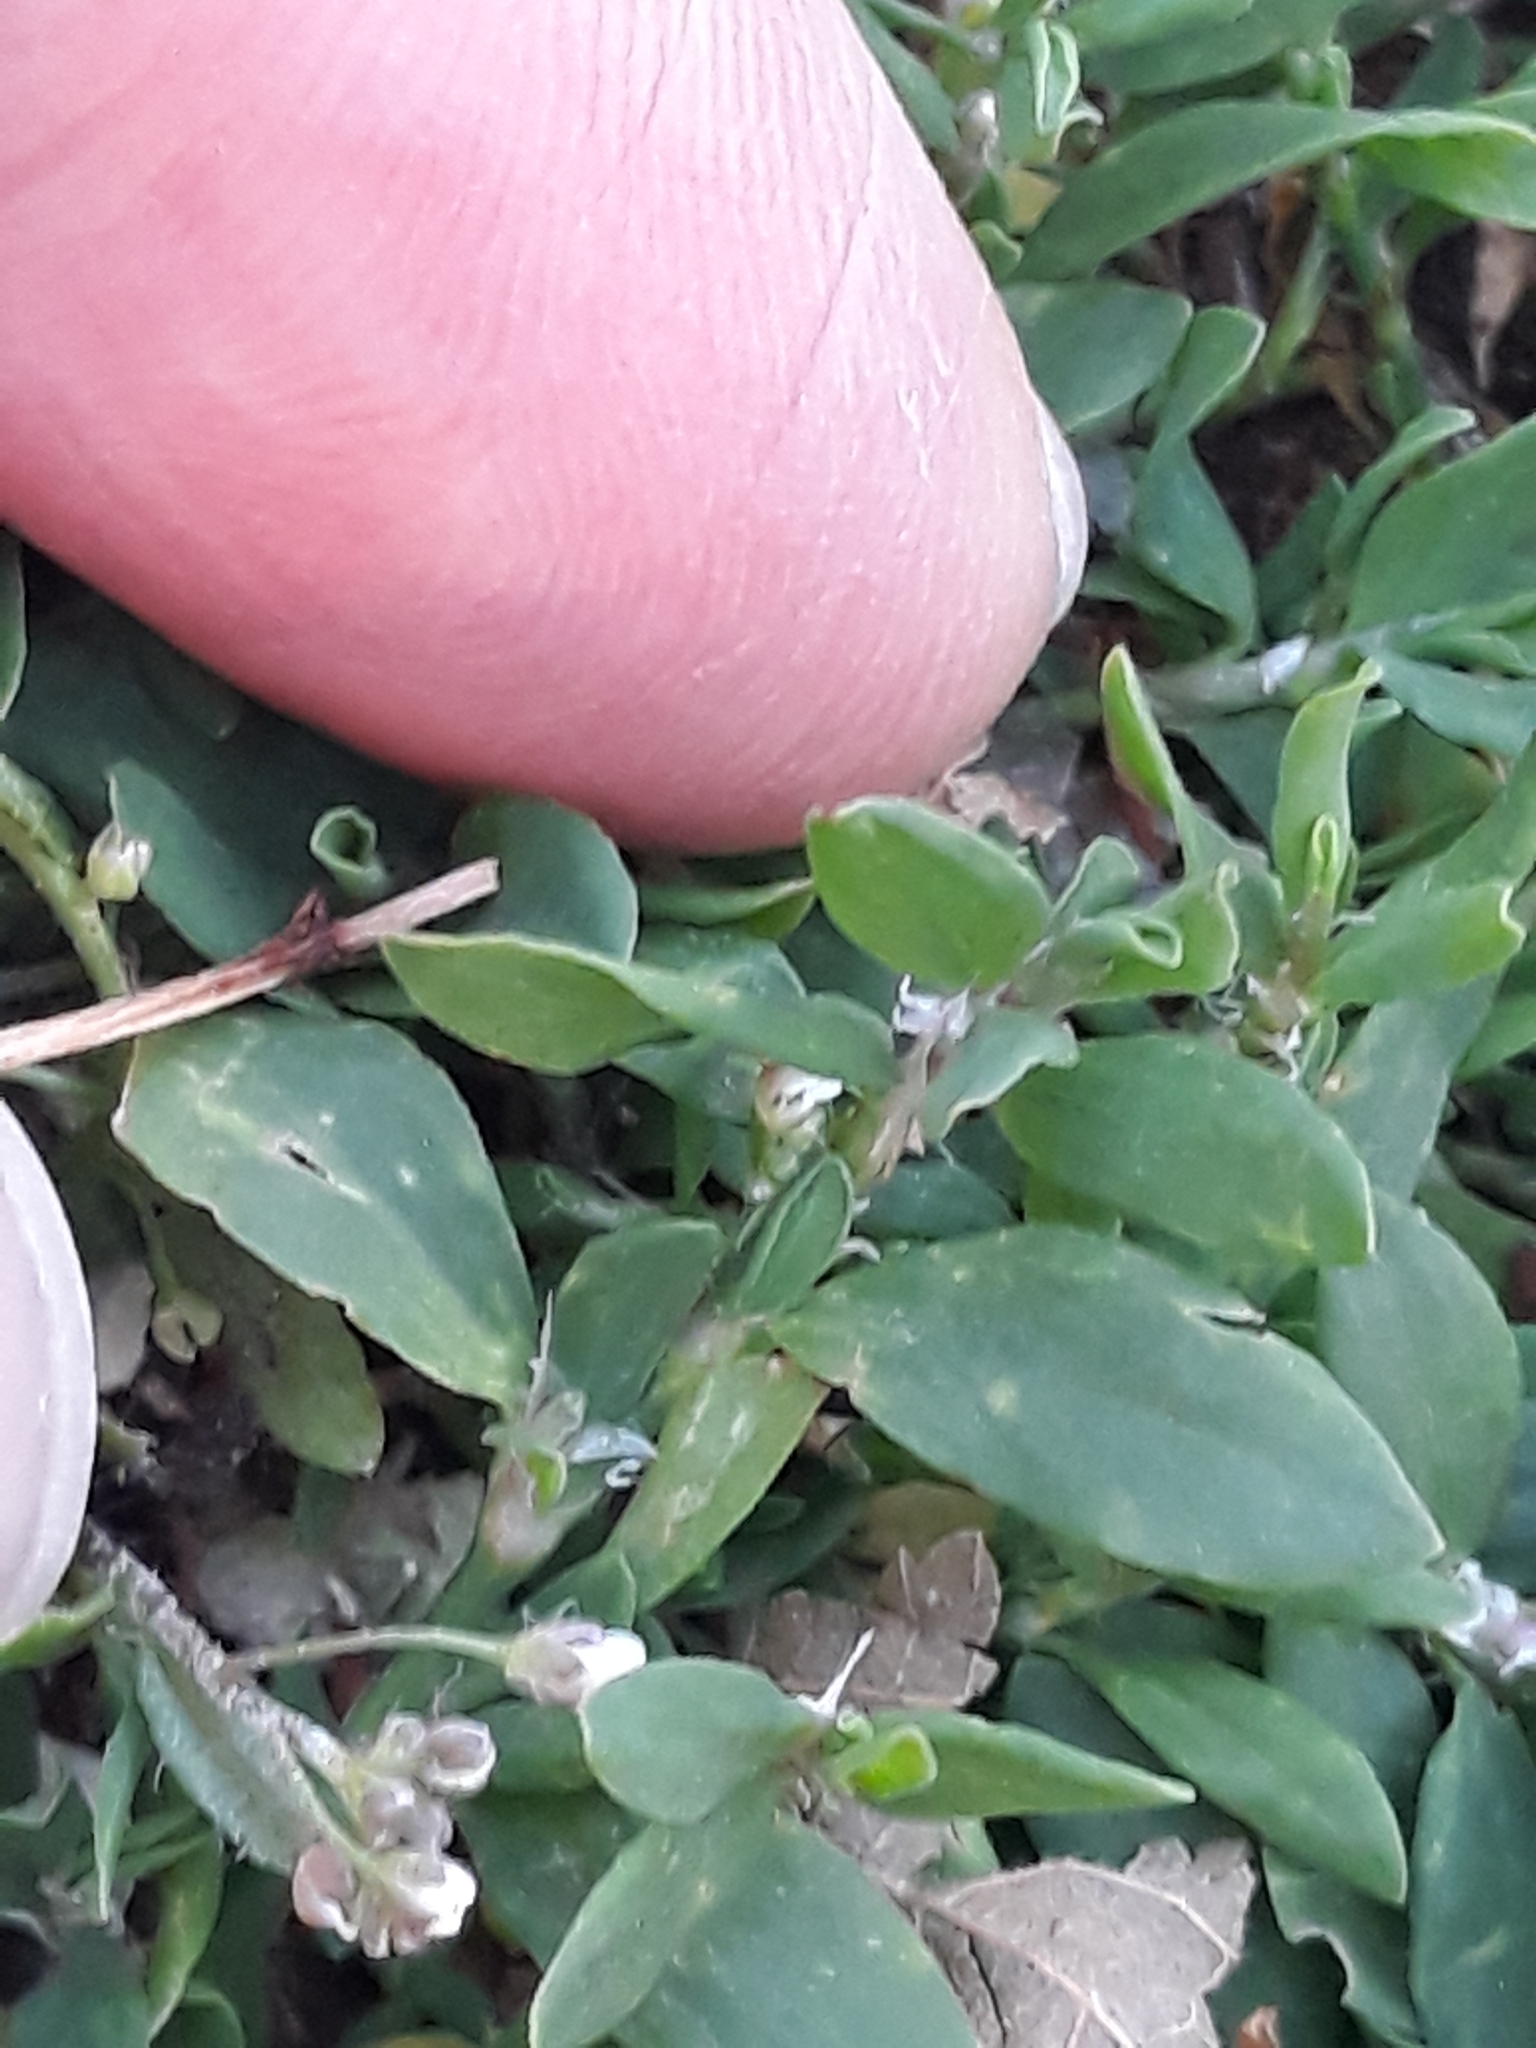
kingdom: Plantae
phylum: Tracheophyta
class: Magnoliopsida
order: Caryophyllales
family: Polygonaceae
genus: Polygonum
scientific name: Polygonum aviculare
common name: Prostrate knotweed
